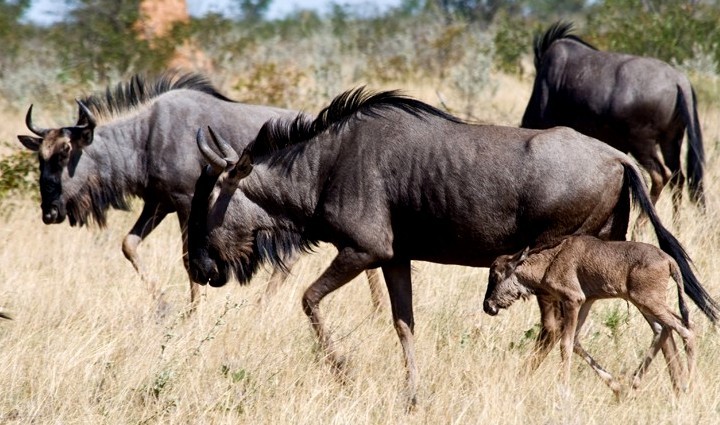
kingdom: Animalia
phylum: Chordata
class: Mammalia
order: Artiodactyla
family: Bovidae
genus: Connochaetes
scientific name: Connochaetes taurinus
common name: Blue wildebeest
